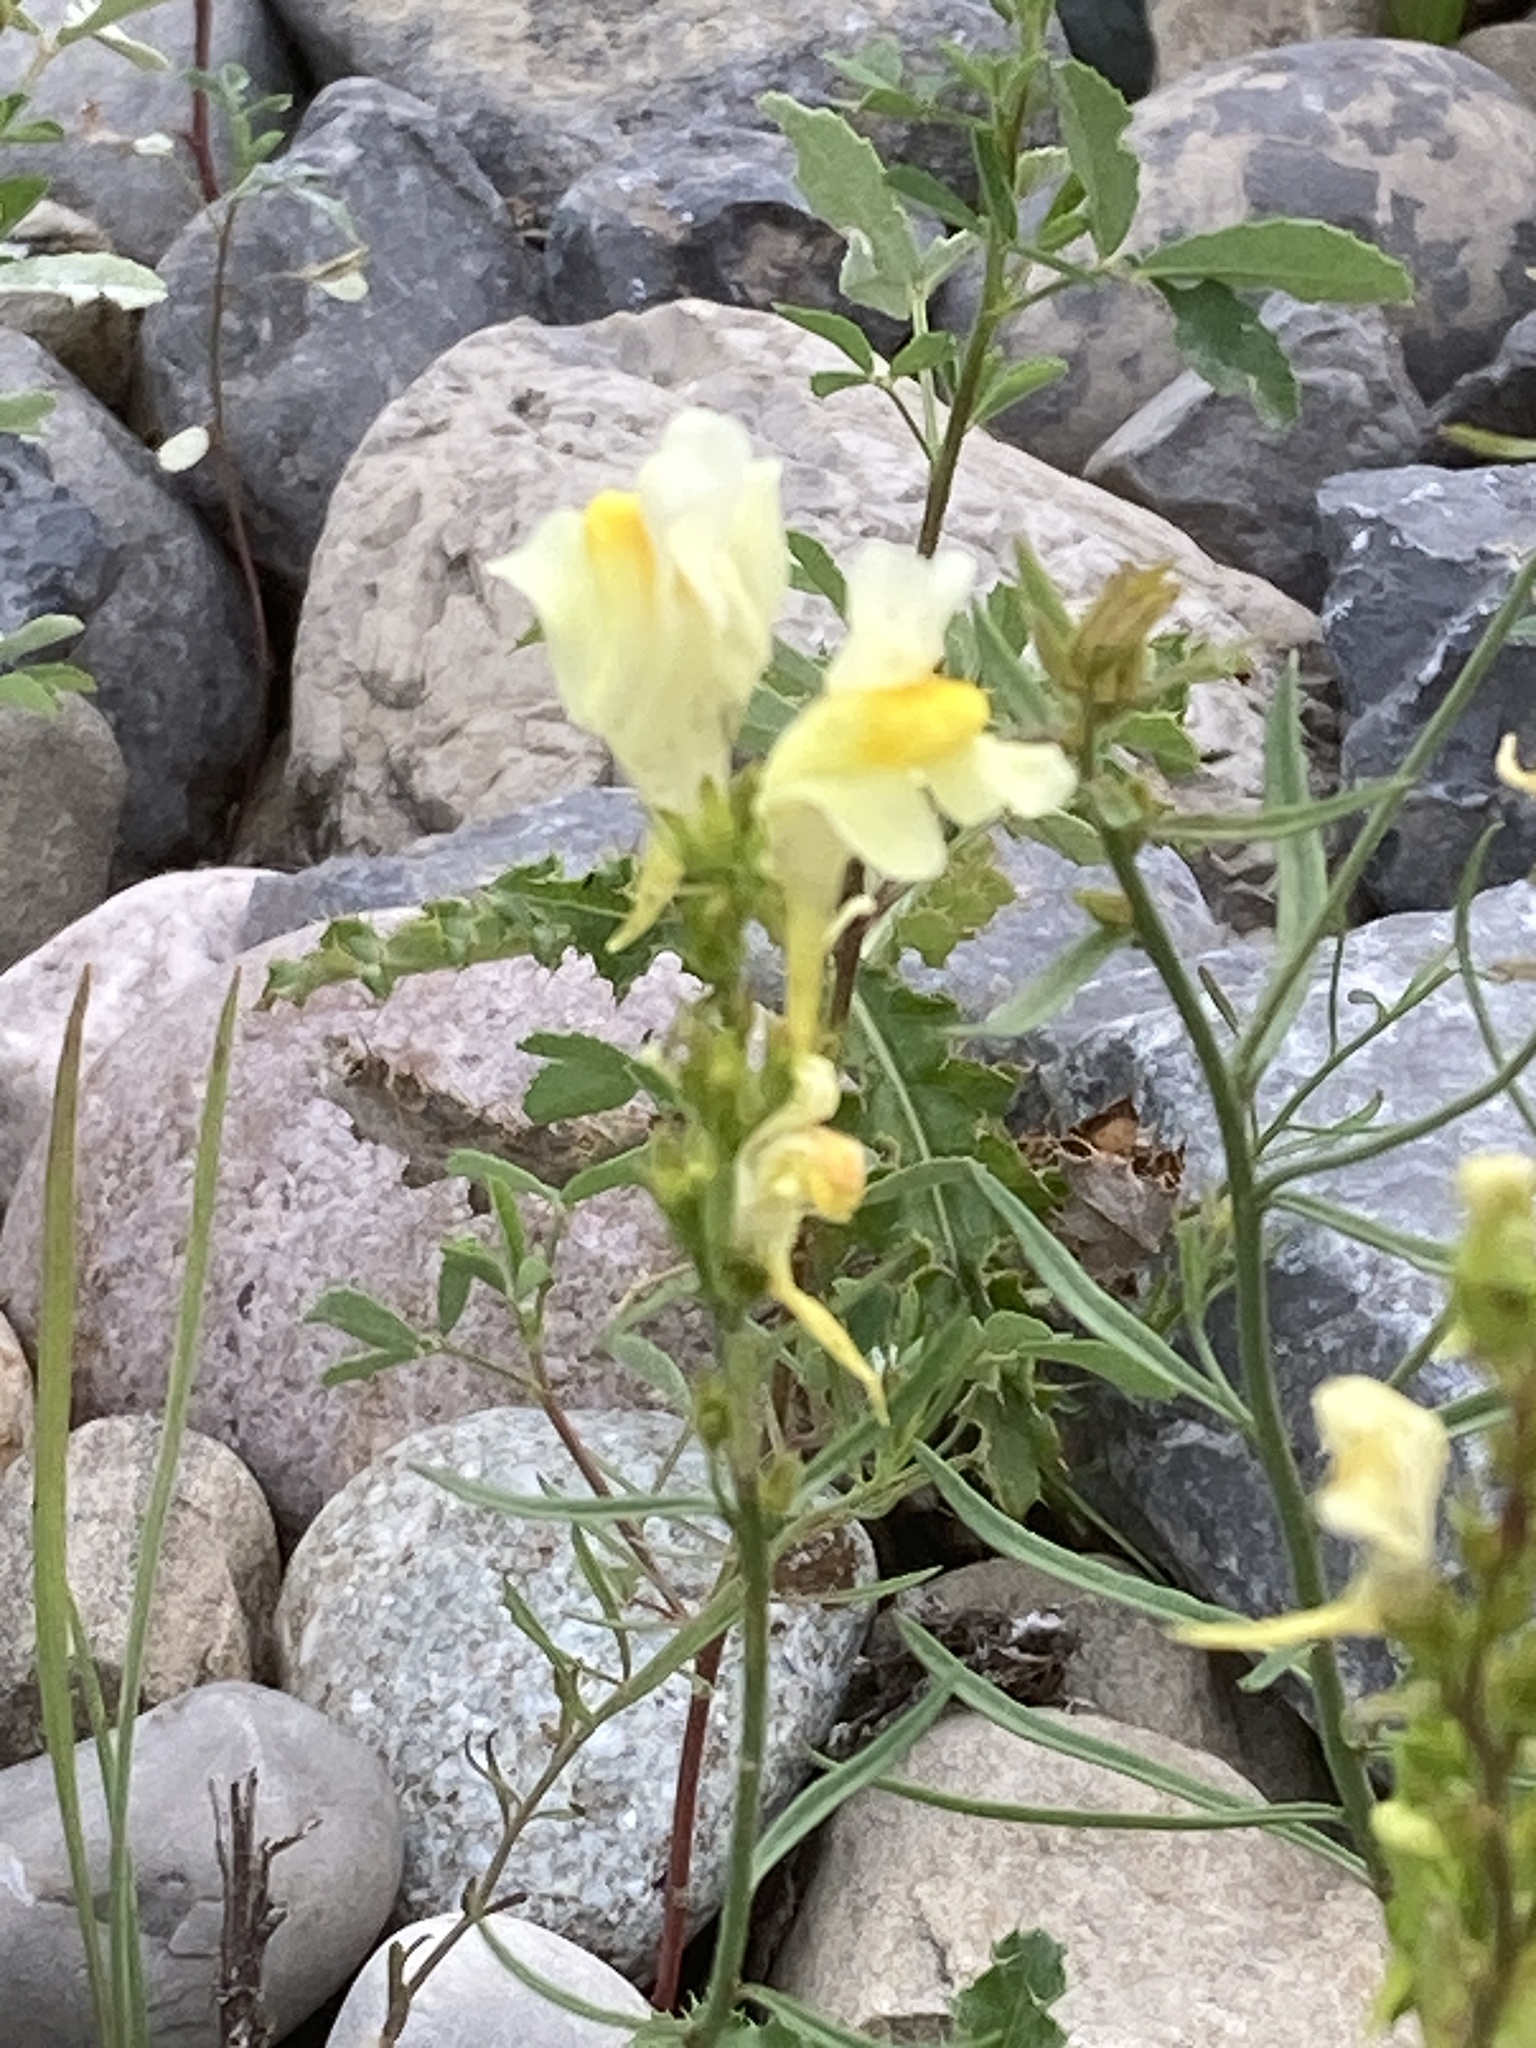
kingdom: Plantae
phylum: Tracheophyta
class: Magnoliopsida
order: Lamiales
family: Plantaginaceae
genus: Linaria
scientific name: Linaria vulgaris
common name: Butter and eggs
